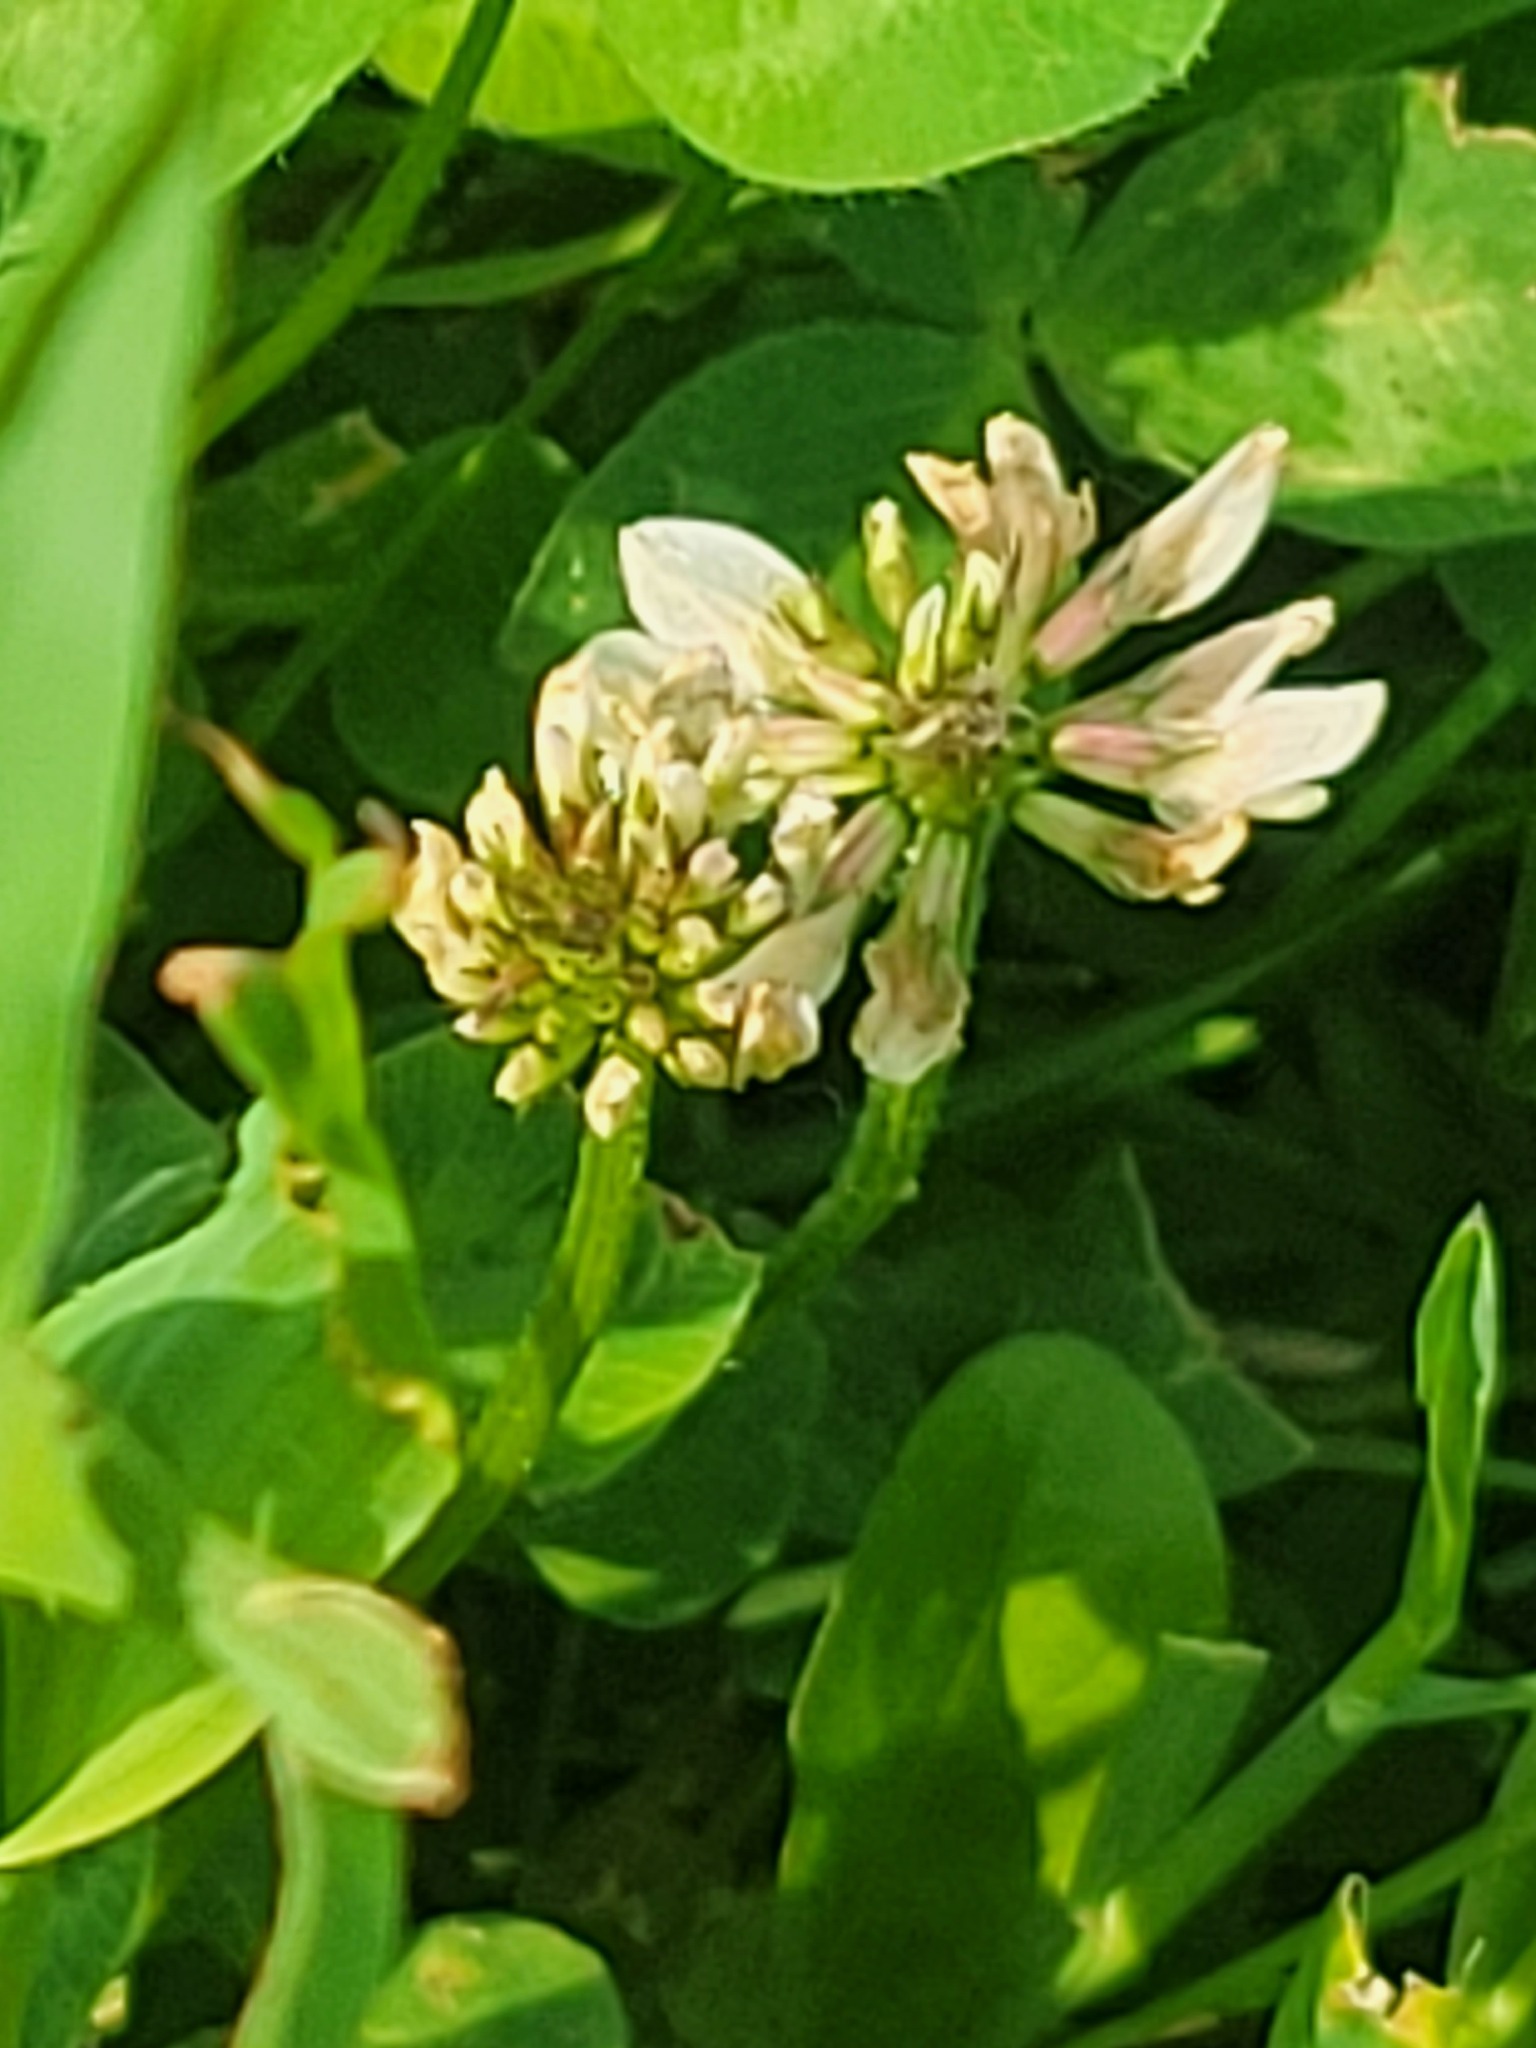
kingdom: Plantae
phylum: Tracheophyta
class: Magnoliopsida
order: Fabales
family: Fabaceae
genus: Trifolium
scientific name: Trifolium repens
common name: White clover
